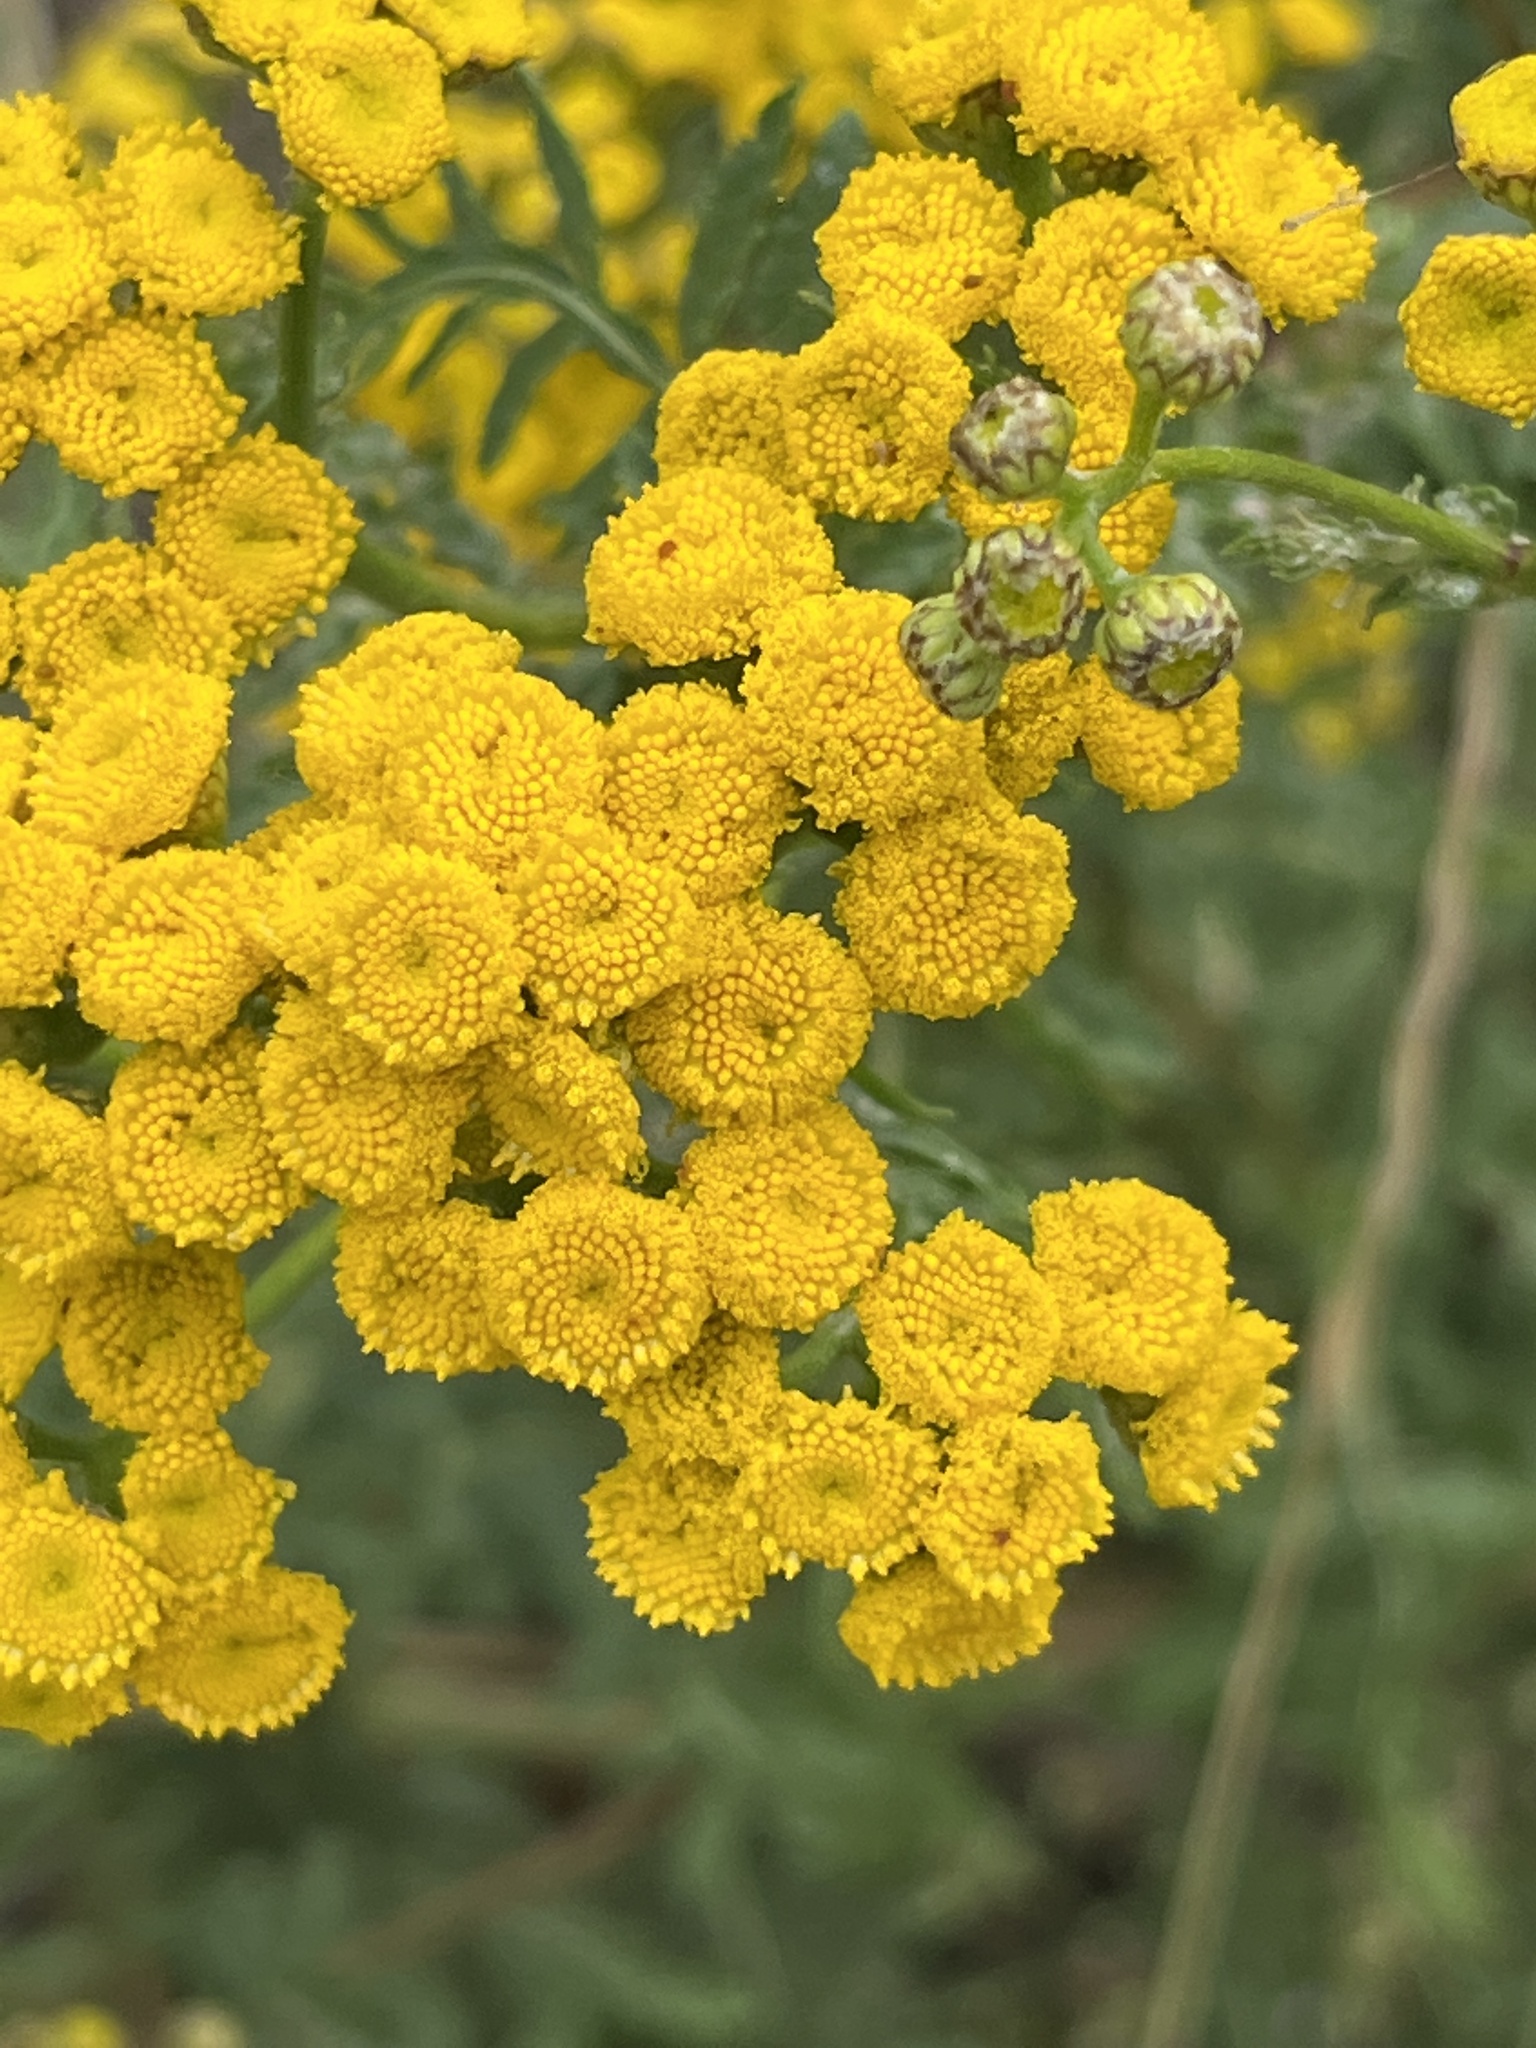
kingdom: Plantae
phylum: Tracheophyta
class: Magnoliopsida
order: Asterales
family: Asteraceae
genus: Tanacetum
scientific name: Tanacetum vulgare
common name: Common tansy
